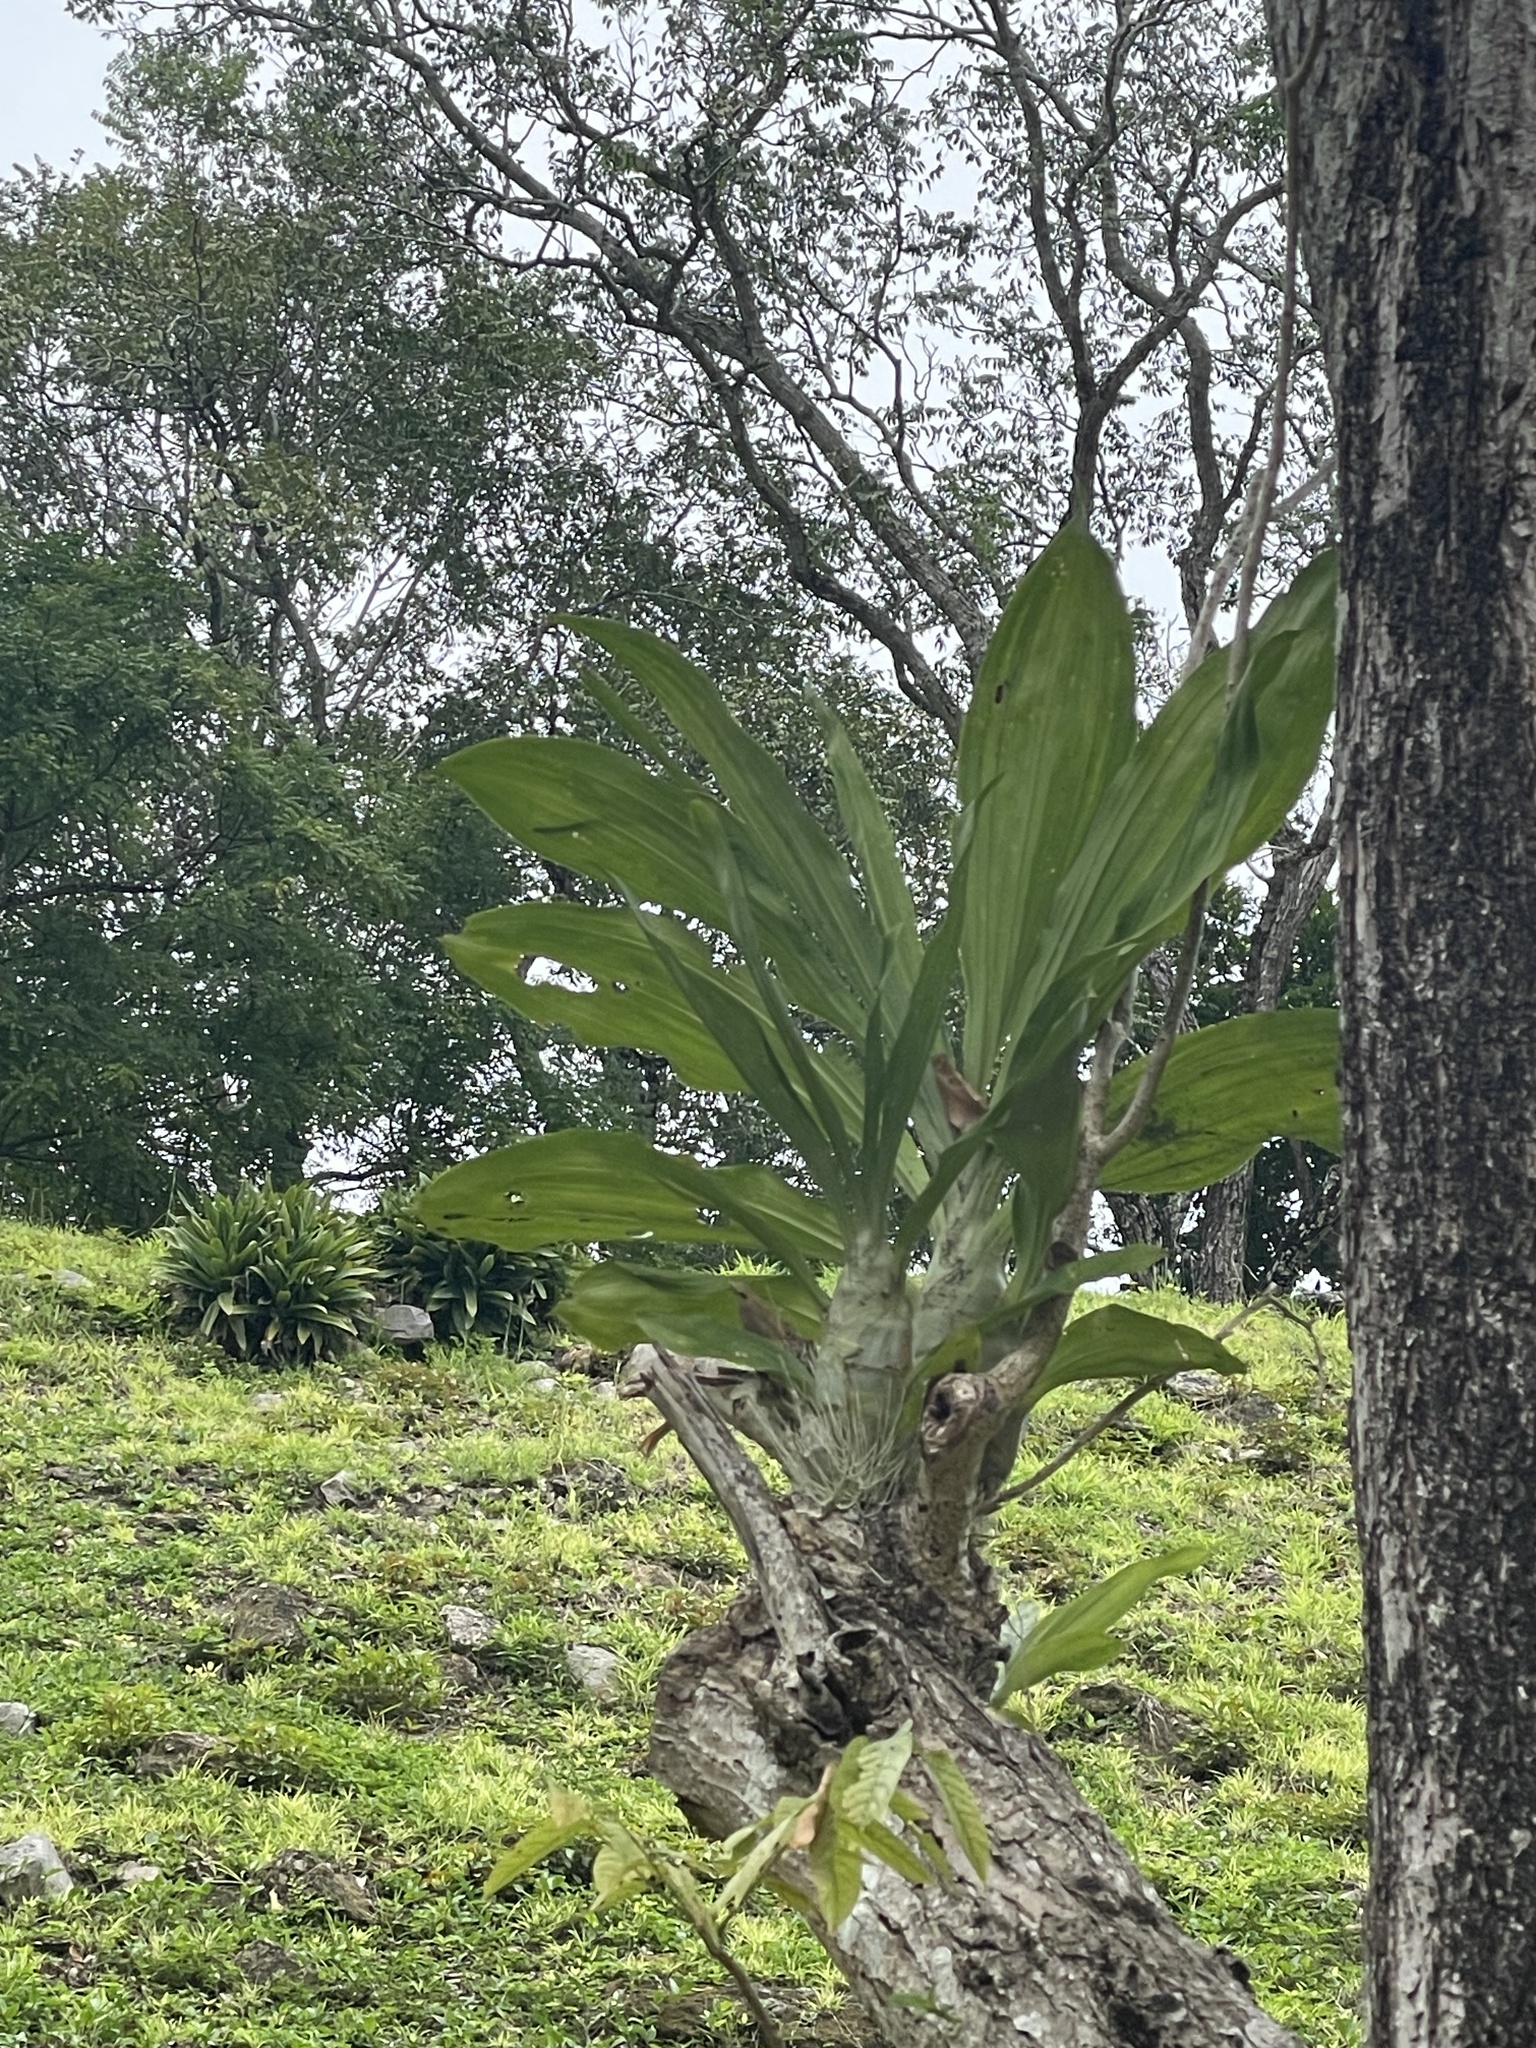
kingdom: Plantae
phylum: Tracheophyta
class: Liliopsida
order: Asparagales
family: Orchidaceae
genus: Catasetum
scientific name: Catasetum integerrimum
